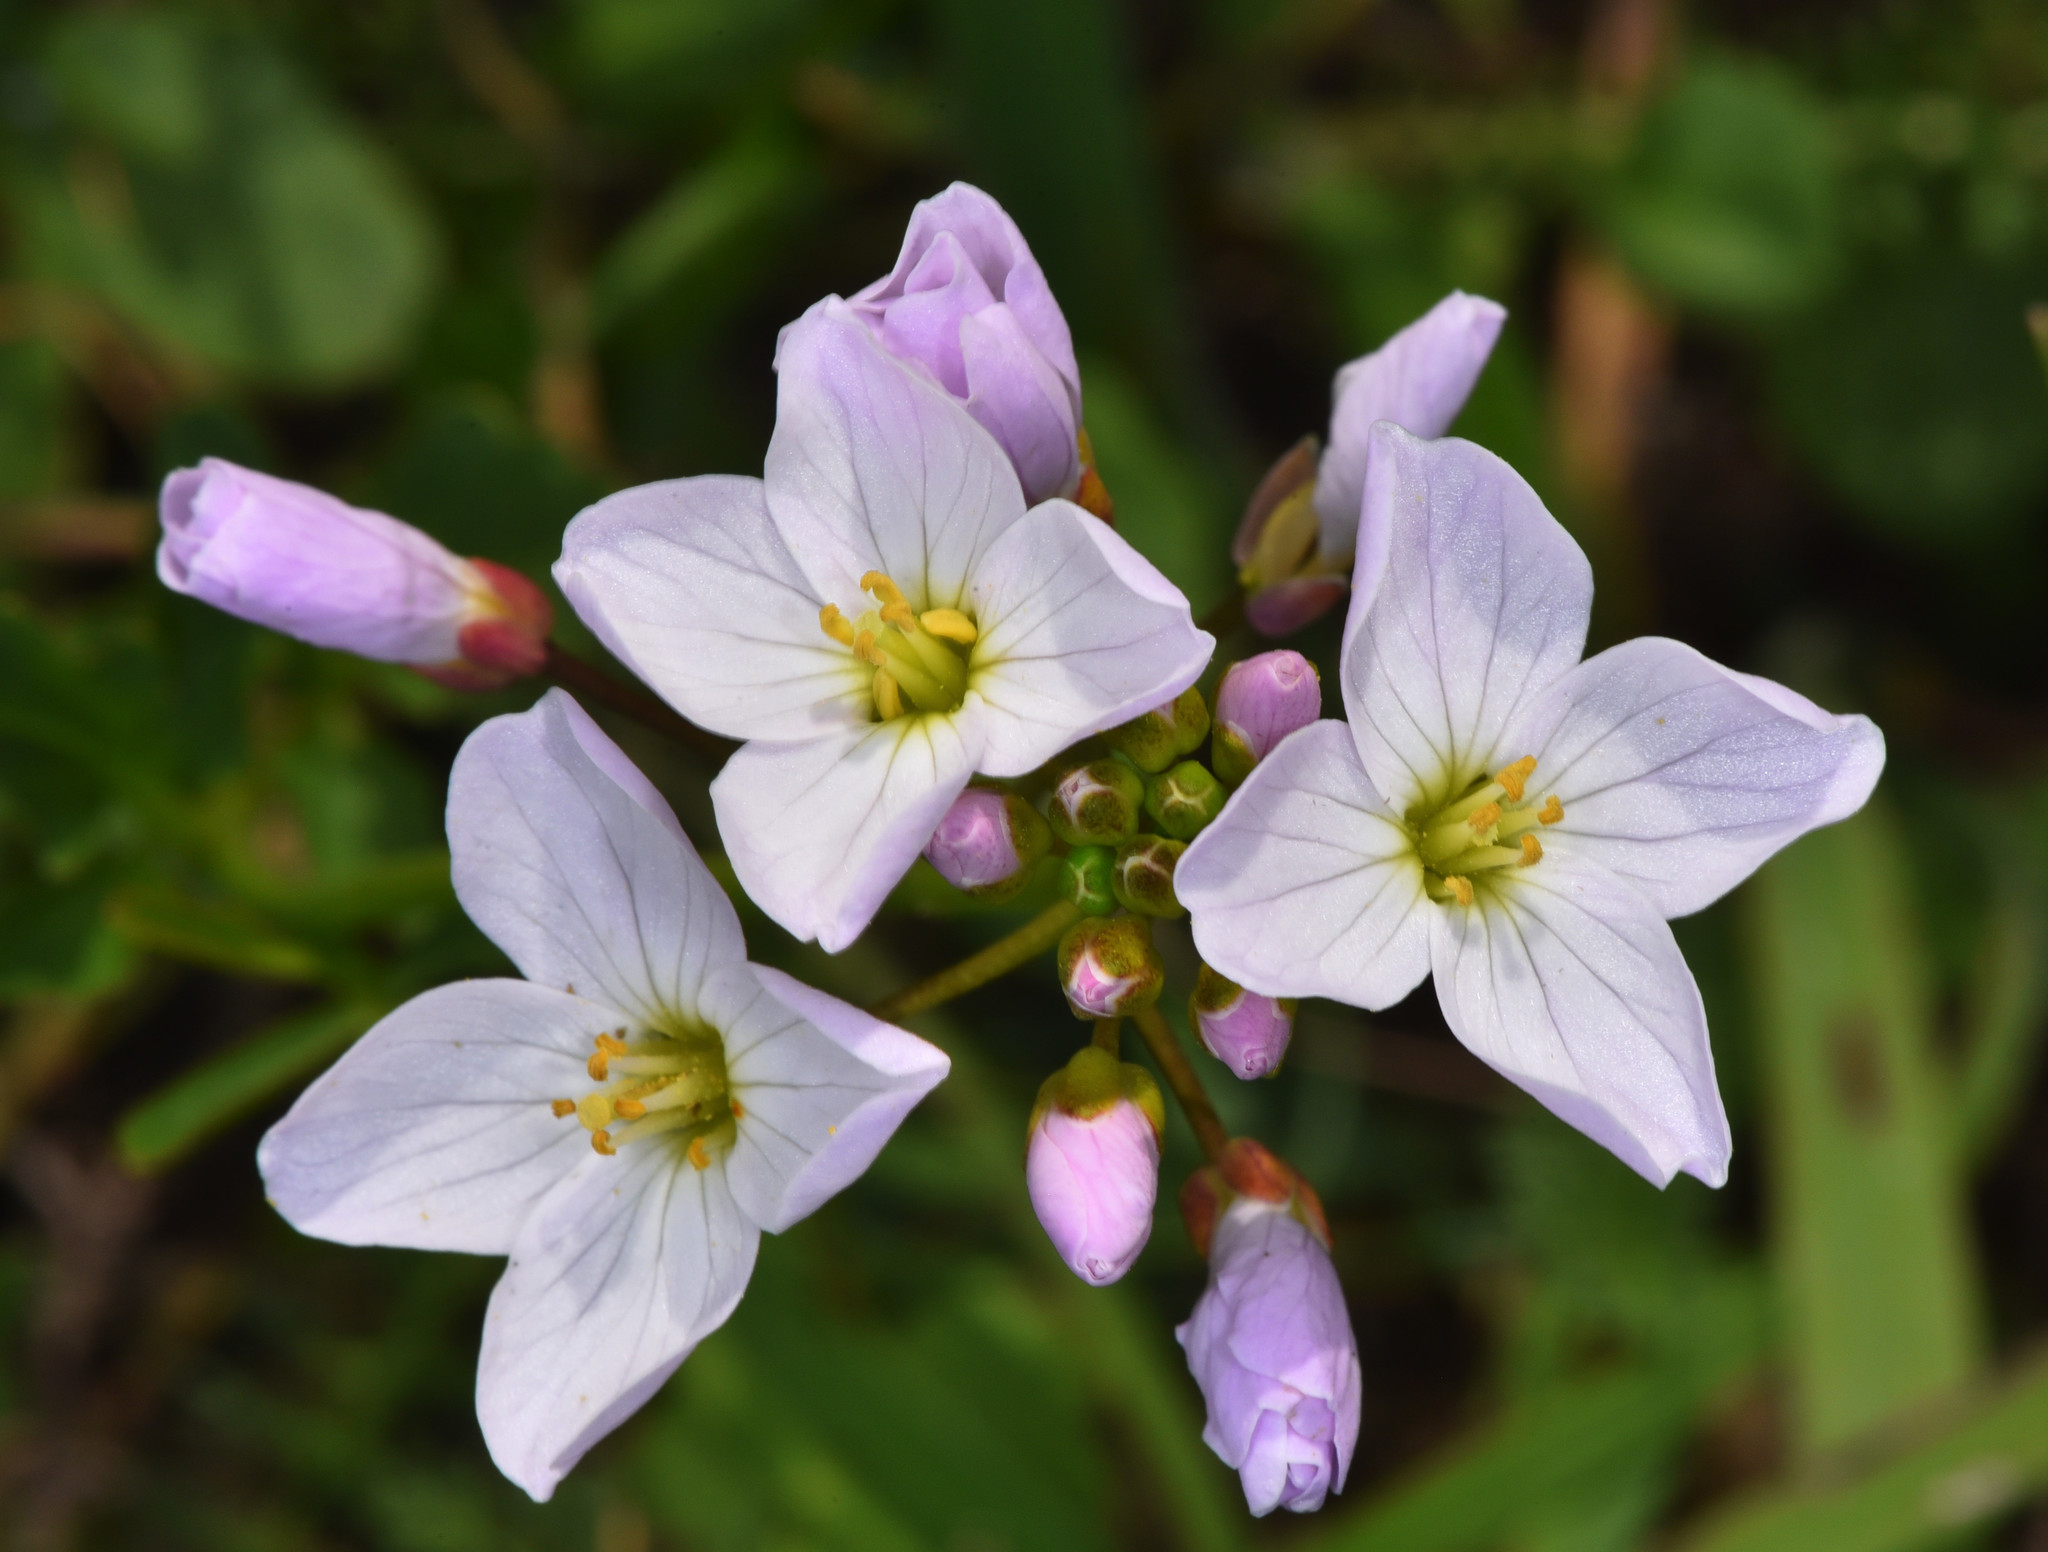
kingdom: Plantae
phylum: Tracheophyta
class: Magnoliopsida
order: Brassicales
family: Brassicaceae
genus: Cardamine
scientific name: Cardamine californica
